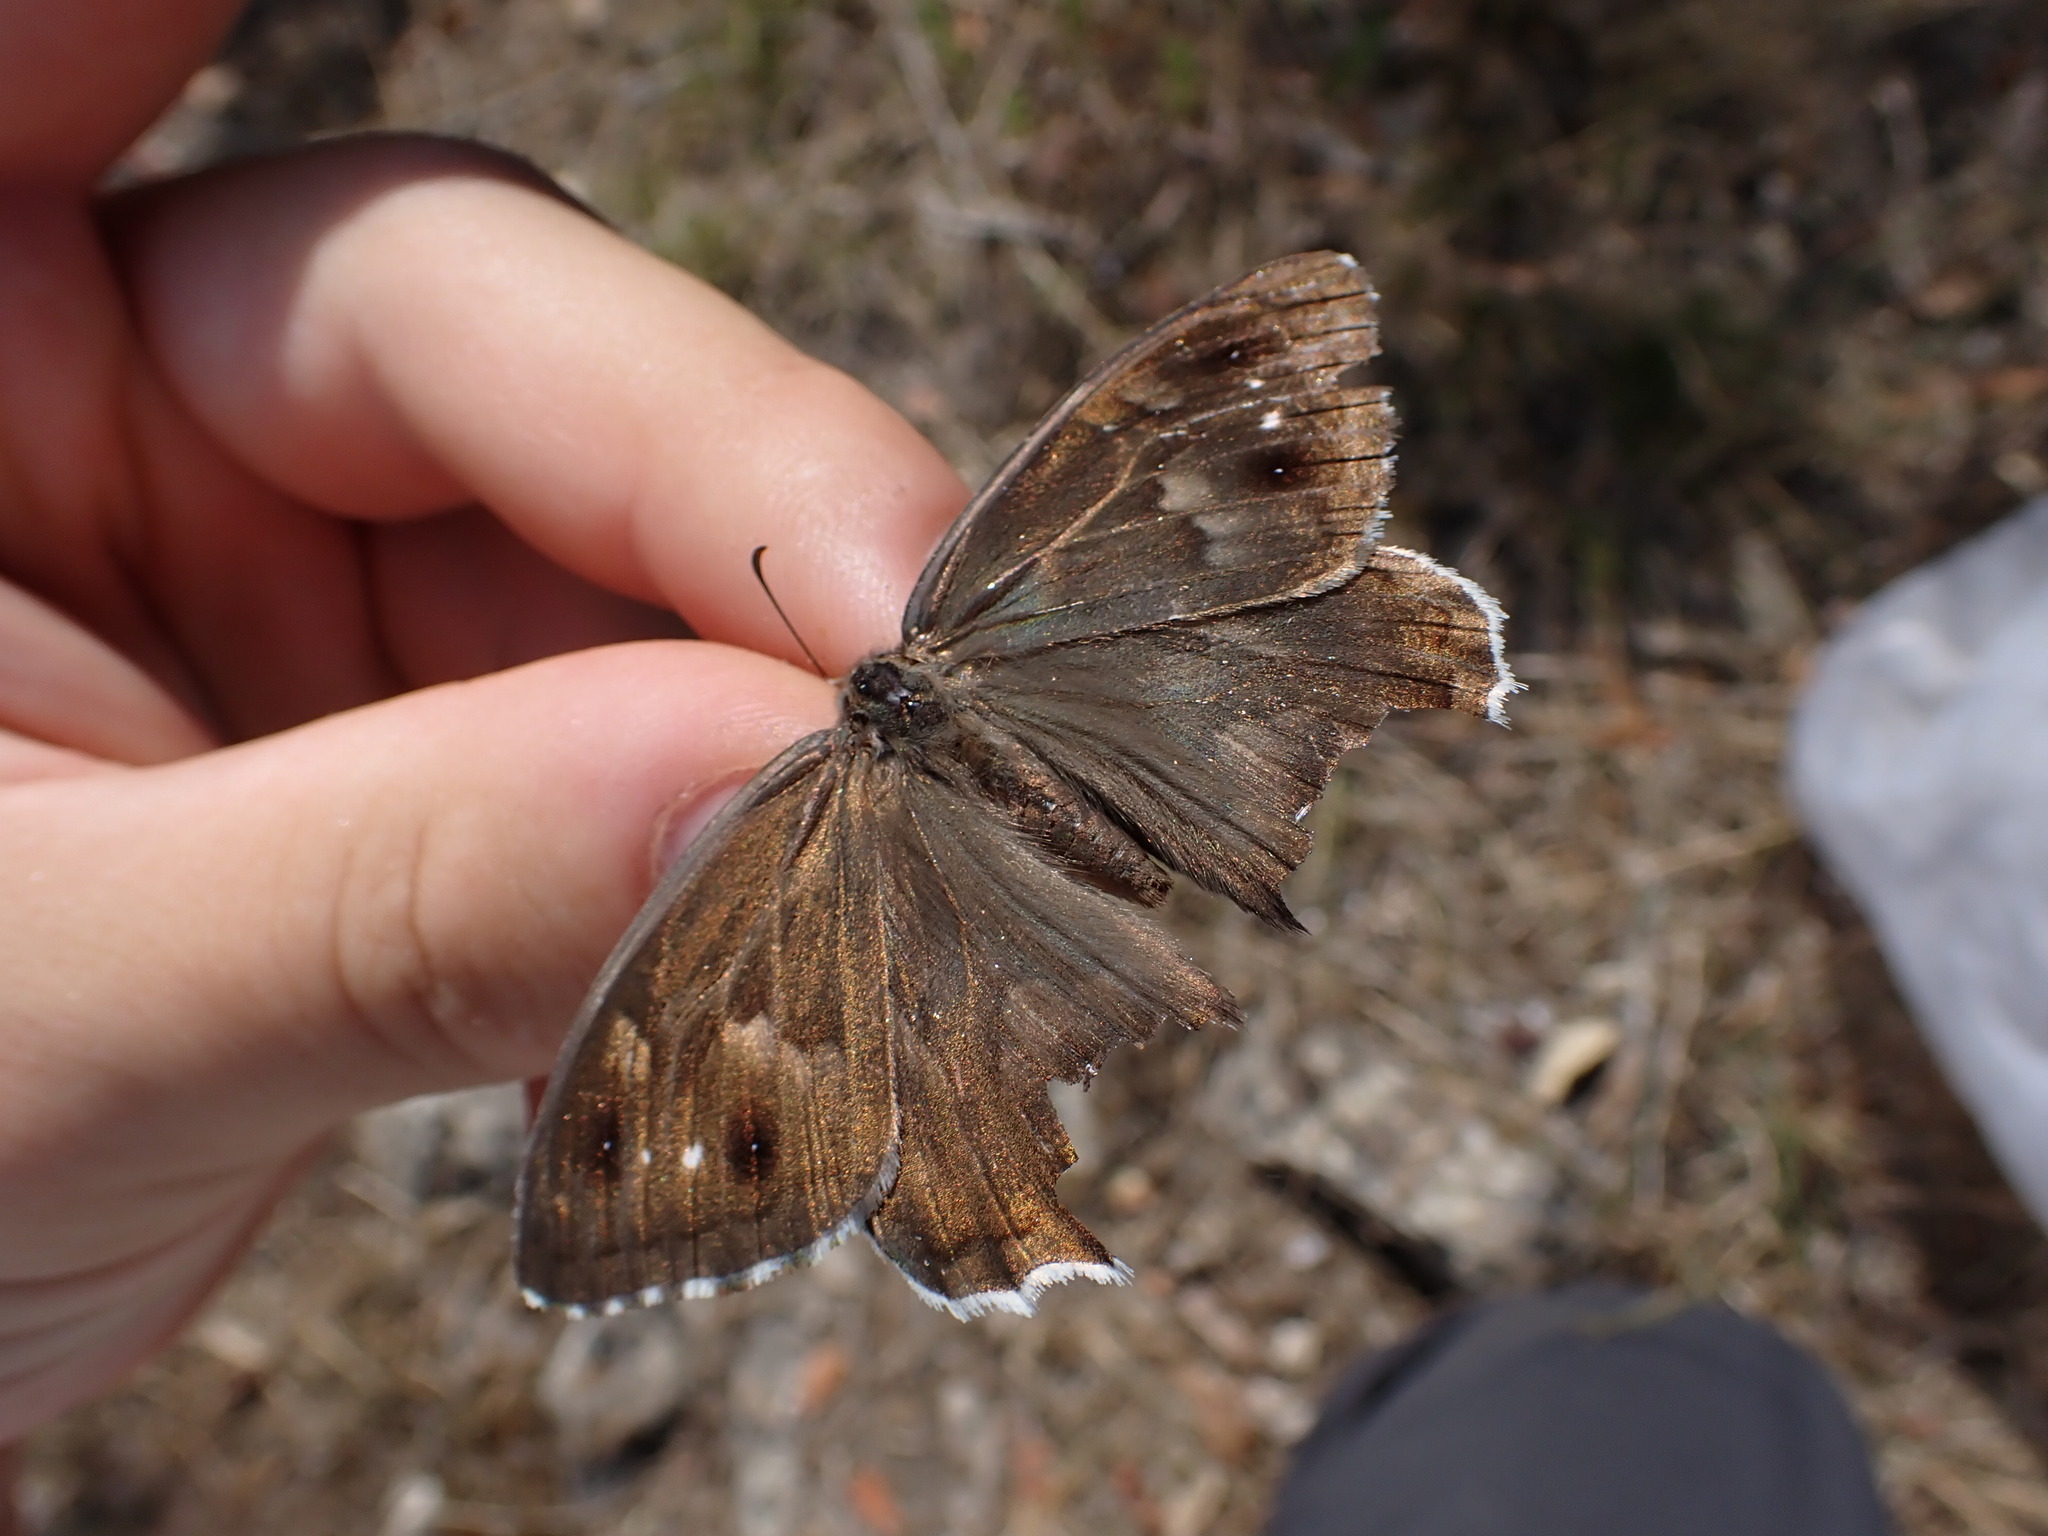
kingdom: Animalia
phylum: Arthropoda
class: Insecta
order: Lepidoptera
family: Nymphalidae
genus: Hipparchia
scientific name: Hipparchia fidia
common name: Striped grayling
